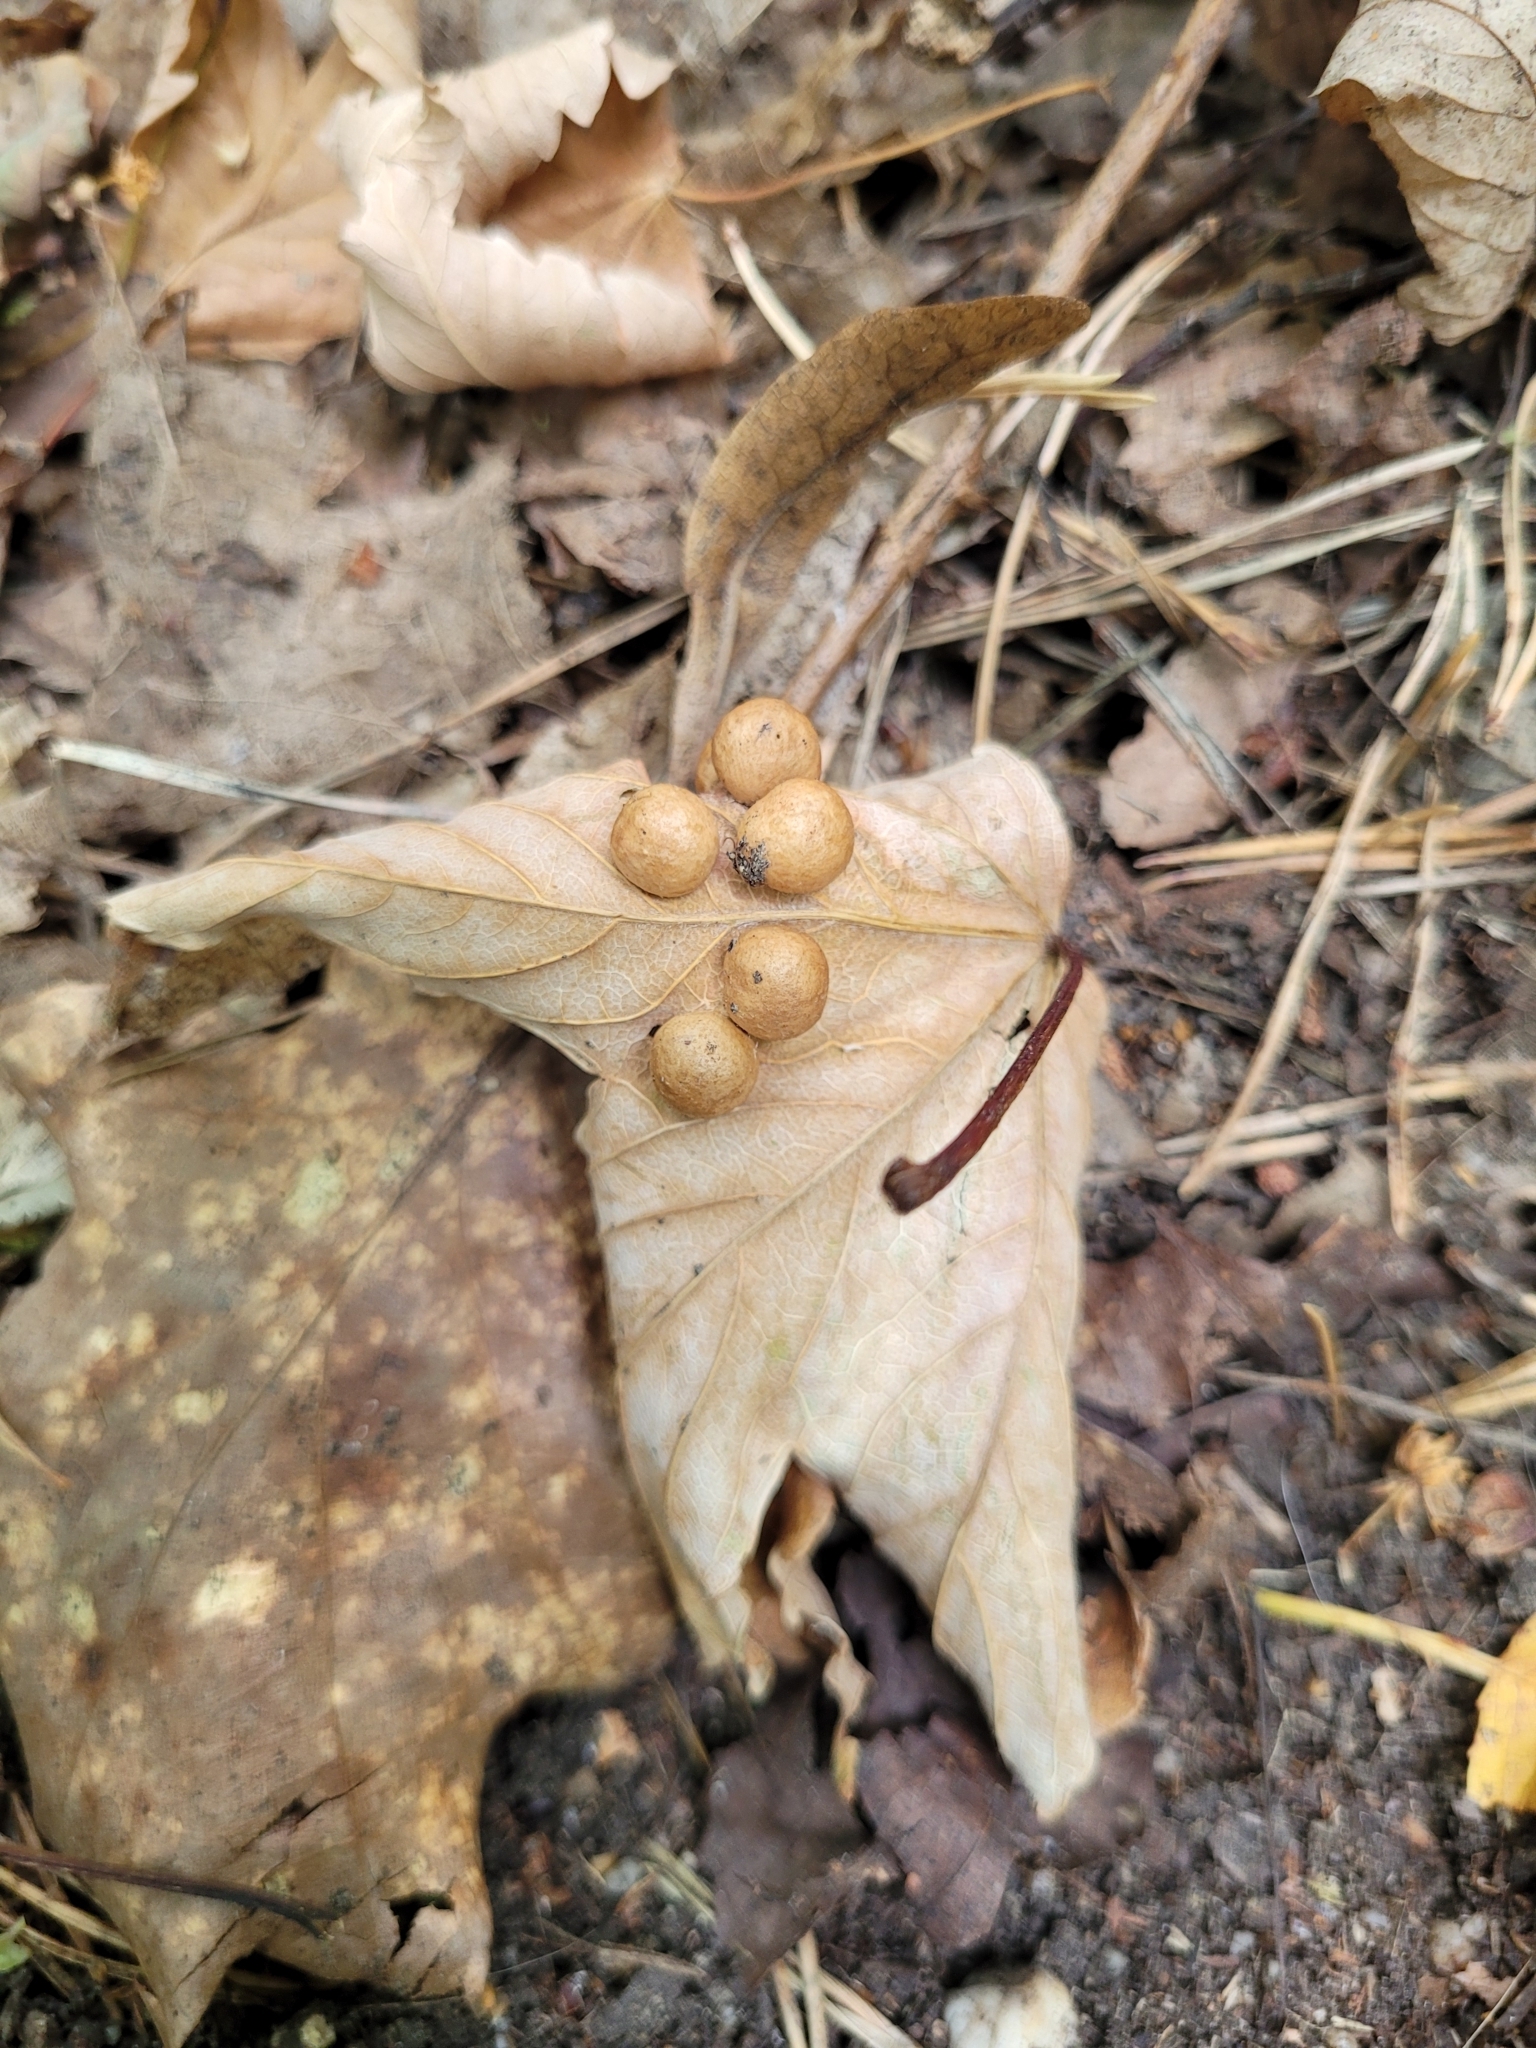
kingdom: Animalia
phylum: Arthropoda
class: Insecta
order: Hymenoptera
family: Cynipidae
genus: Pediaspis
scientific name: Pediaspis aceris
